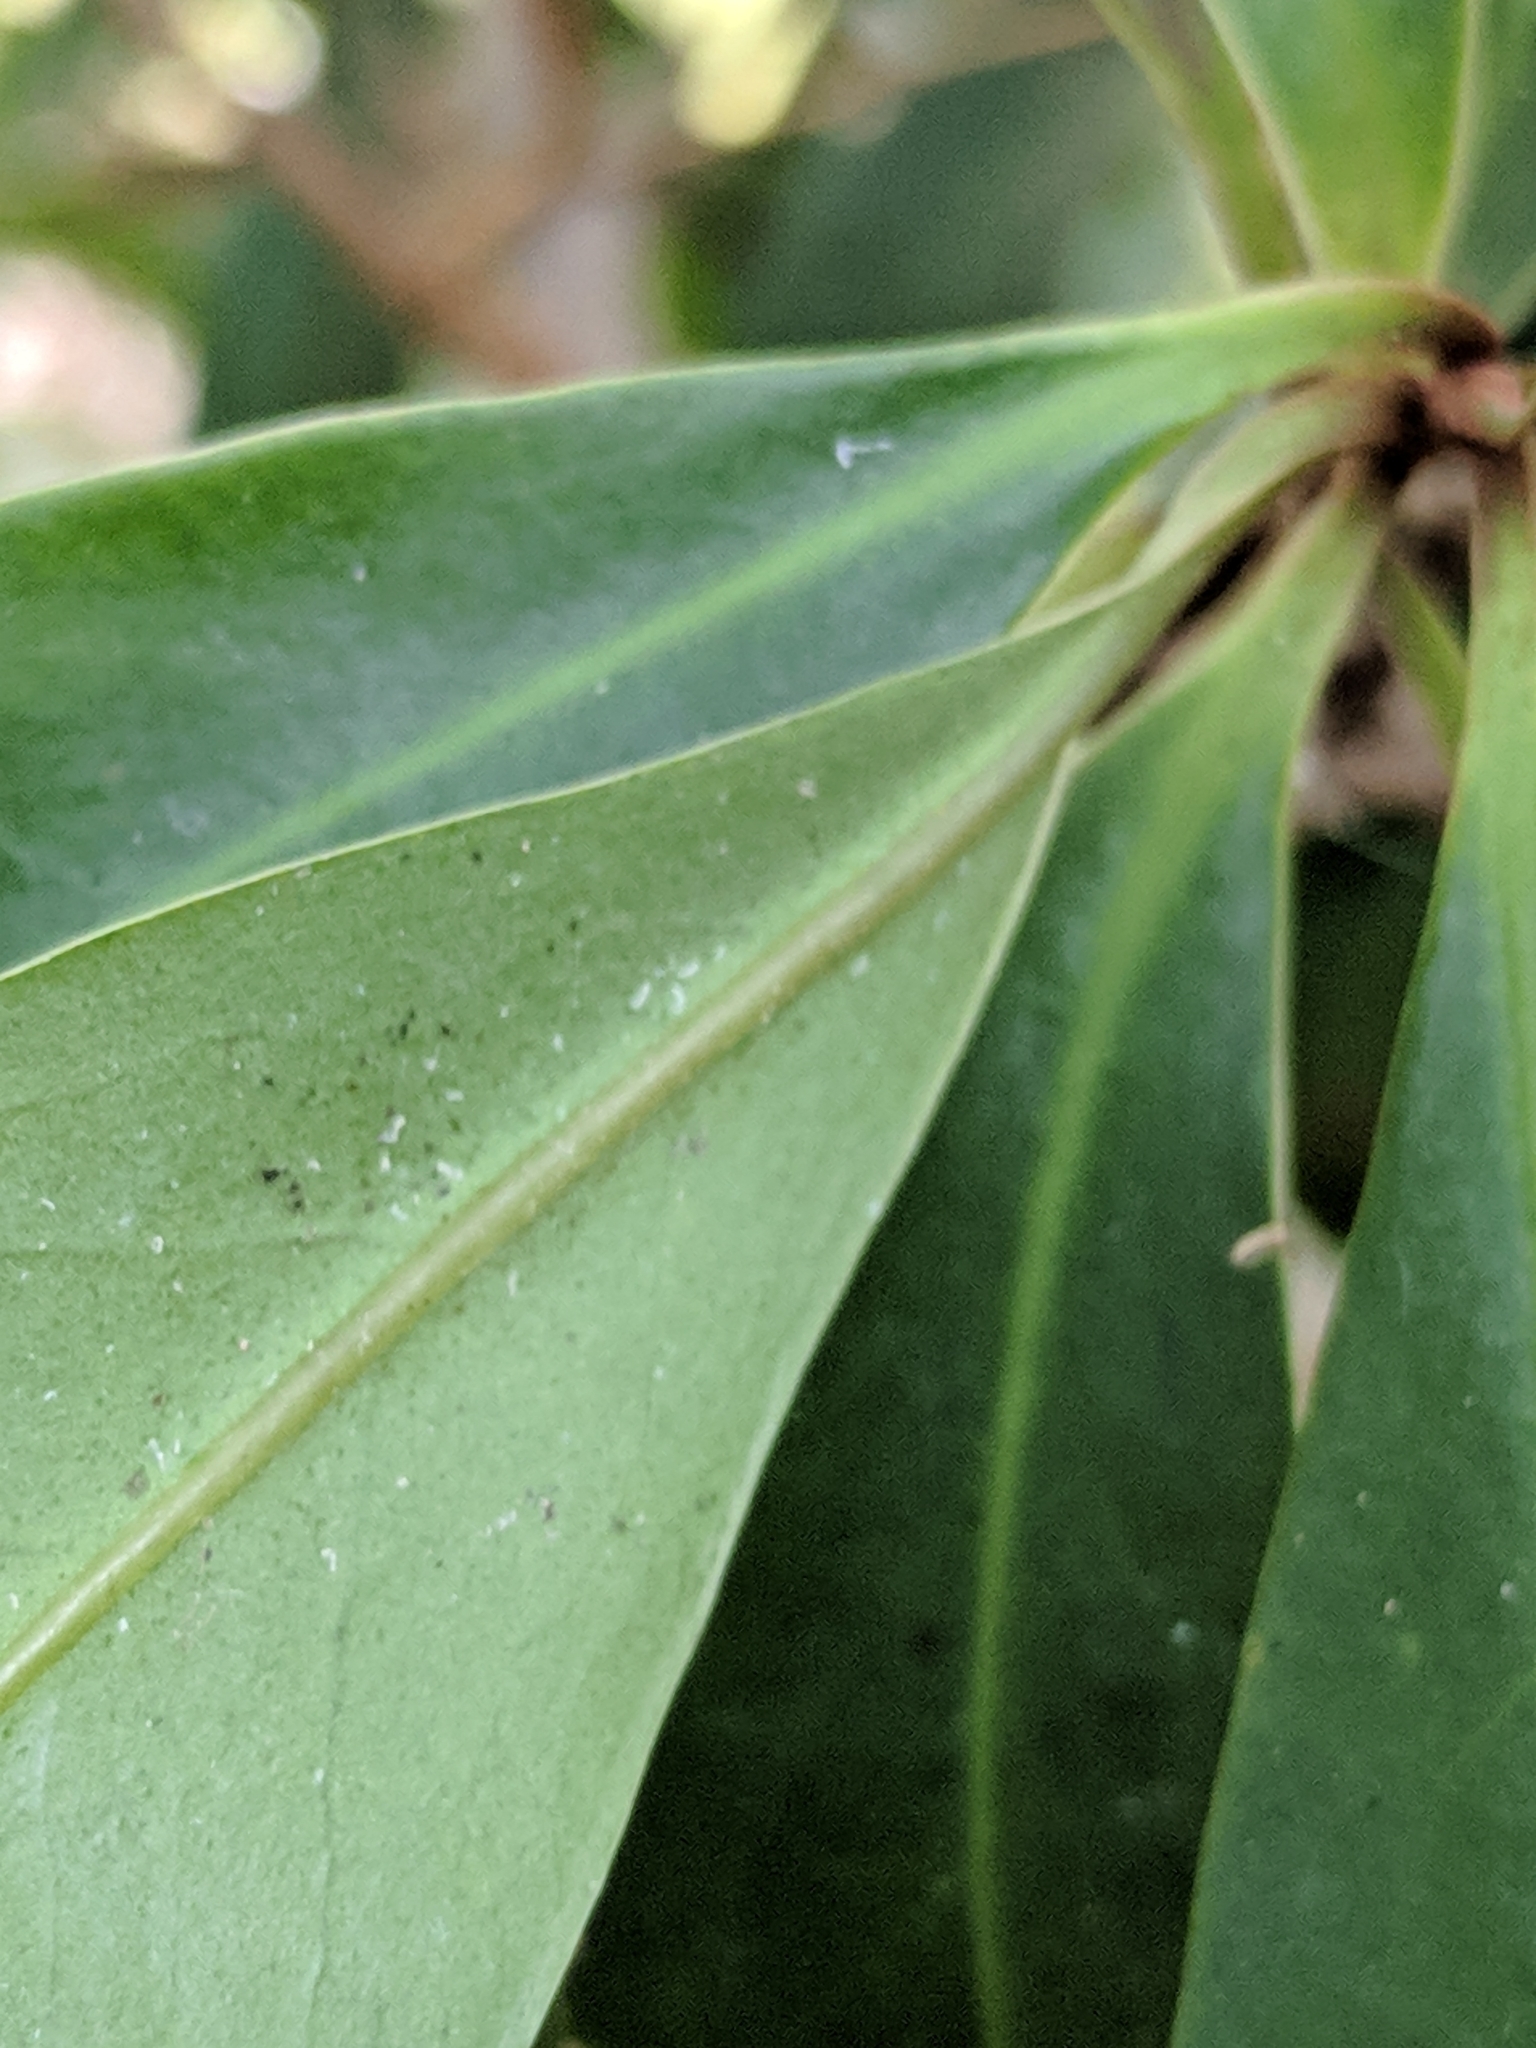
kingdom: Plantae
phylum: Tracheophyta
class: Magnoliopsida
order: Ericales
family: Primulaceae
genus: Ardisia
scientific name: Ardisia escallonioides
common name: Island marlberry
